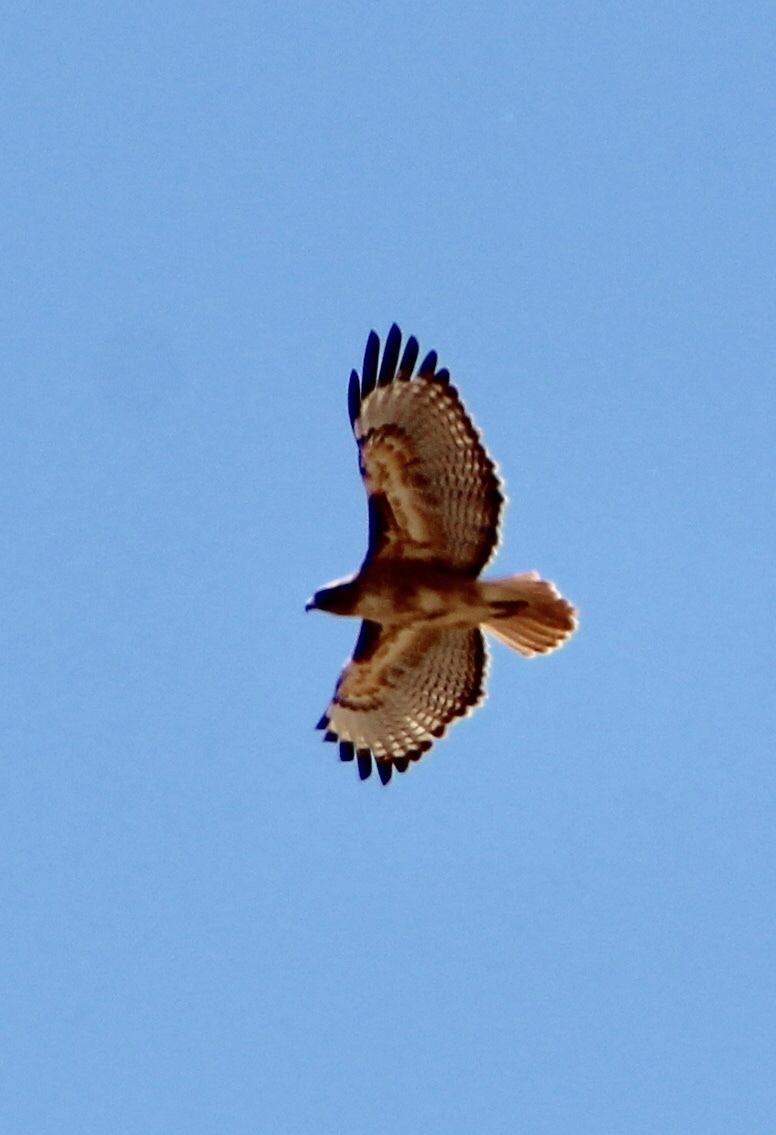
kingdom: Animalia
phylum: Chordata
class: Aves
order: Accipitriformes
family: Accipitridae
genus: Buteo
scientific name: Buteo jamaicensis
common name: Red-tailed hawk
